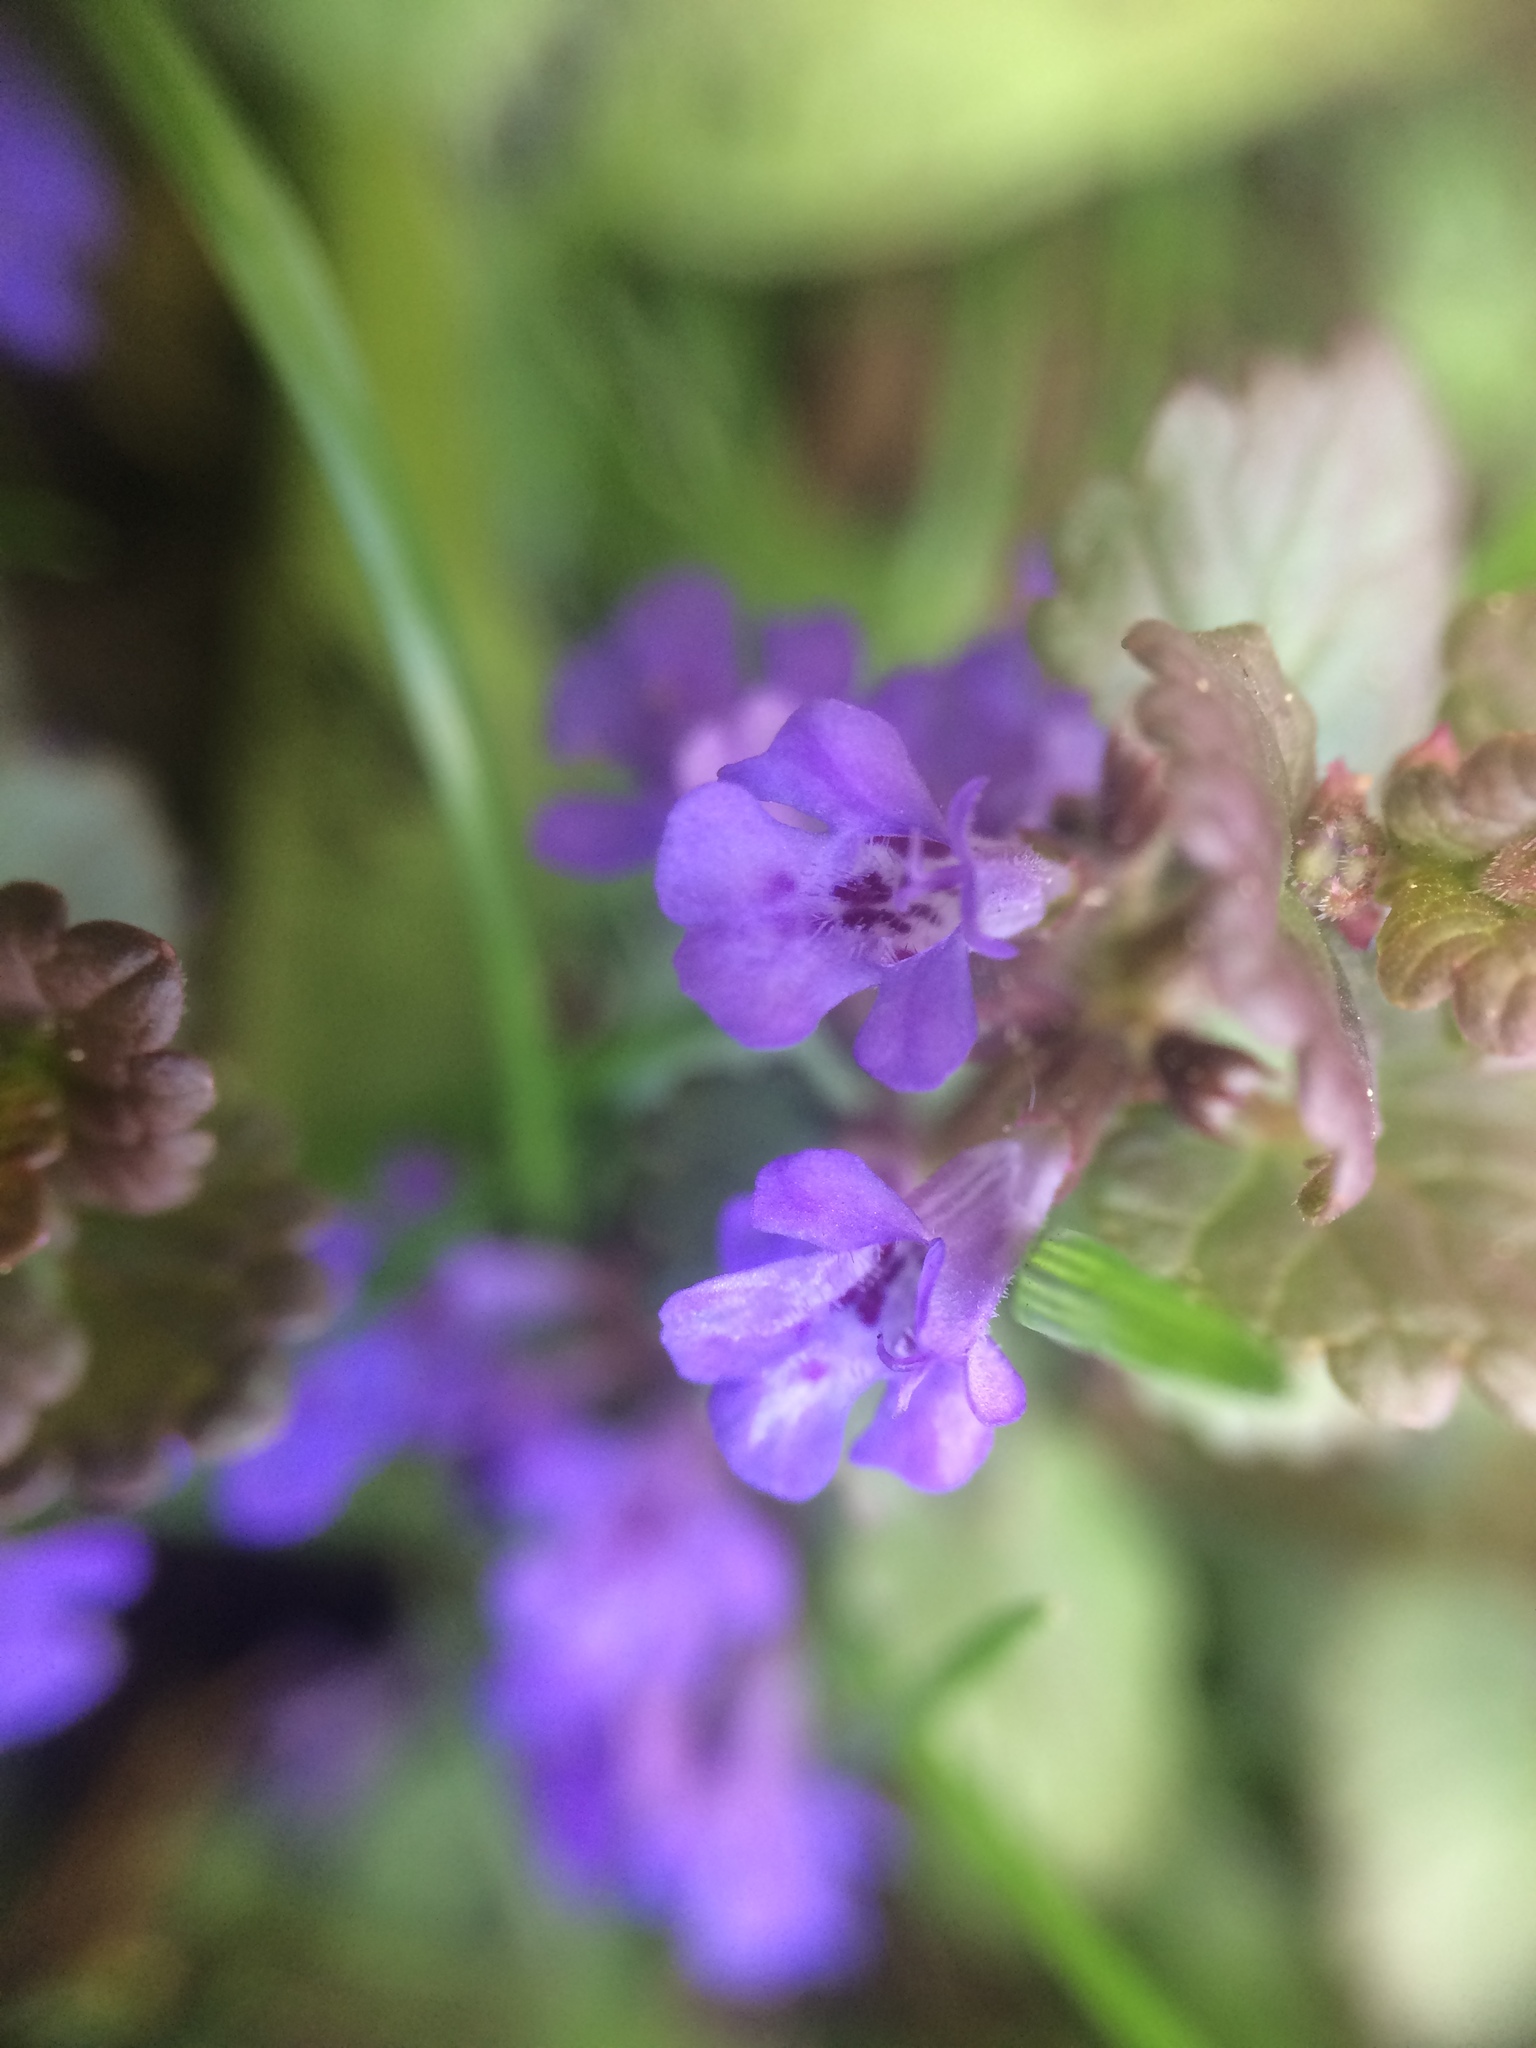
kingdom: Plantae
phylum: Tracheophyta
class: Magnoliopsida
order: Lamiales
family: Lamiaceae
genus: Glechoma
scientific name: Glechoma hederacea
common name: Ground ivy
